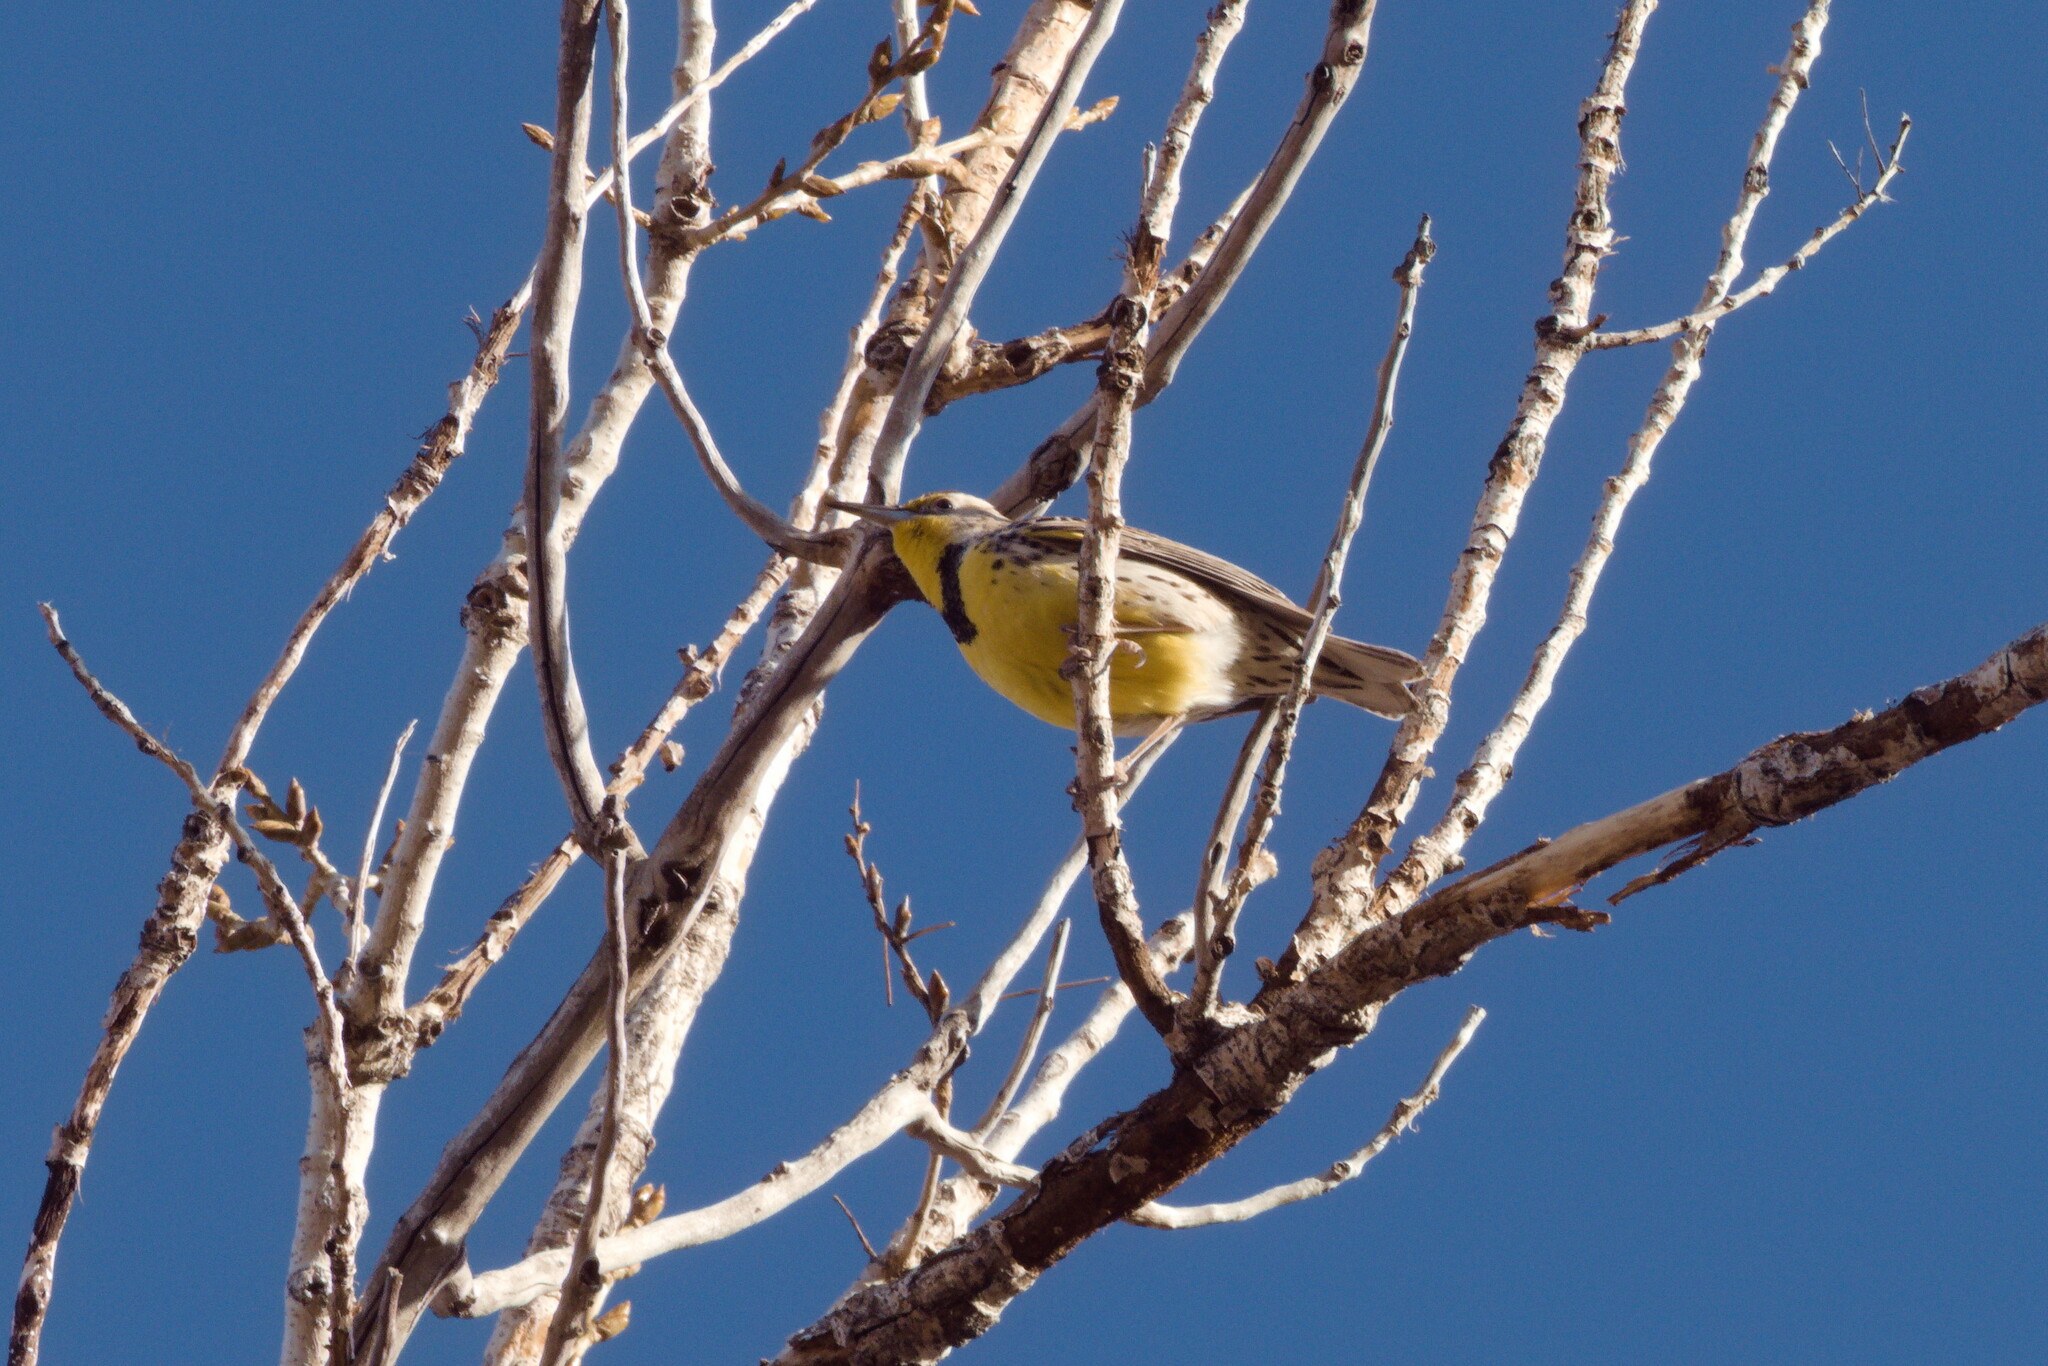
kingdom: Animalia
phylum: Chordata
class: Aves
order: Passeriformes
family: Icteridae
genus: Sturnella
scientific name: Sturnella neglecta
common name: Western meadowlark
